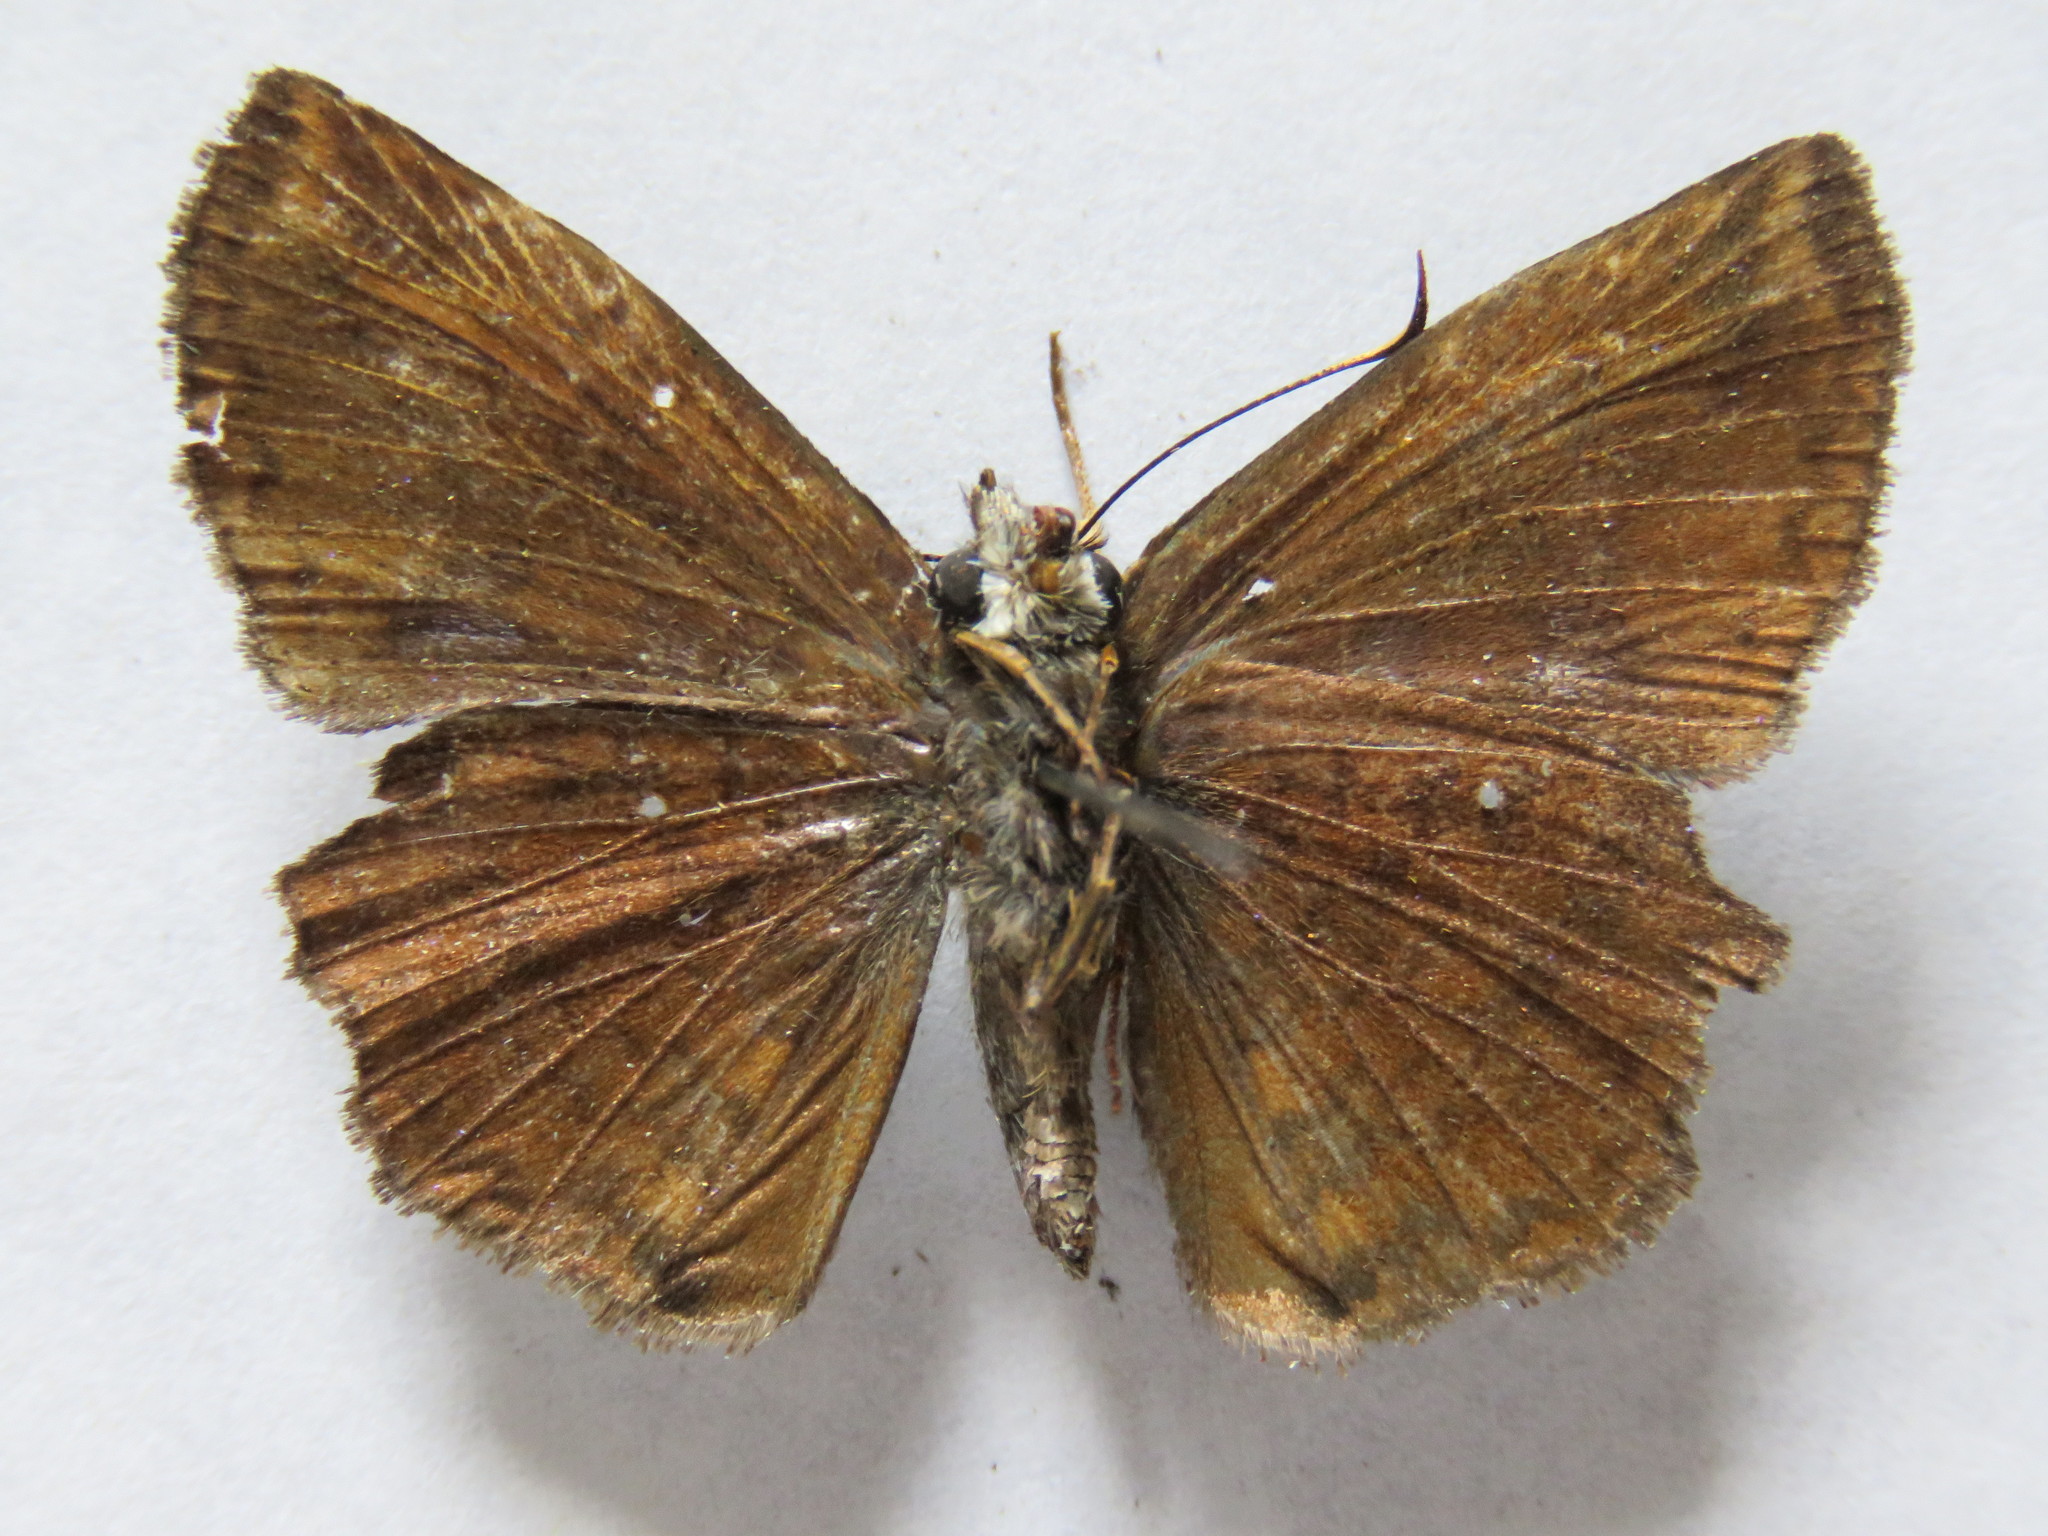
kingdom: Animalia
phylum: Arthropoda
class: Insecta
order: Lepidoptera
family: Hesperiidae
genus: Antigonus
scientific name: Antigonus erosus
